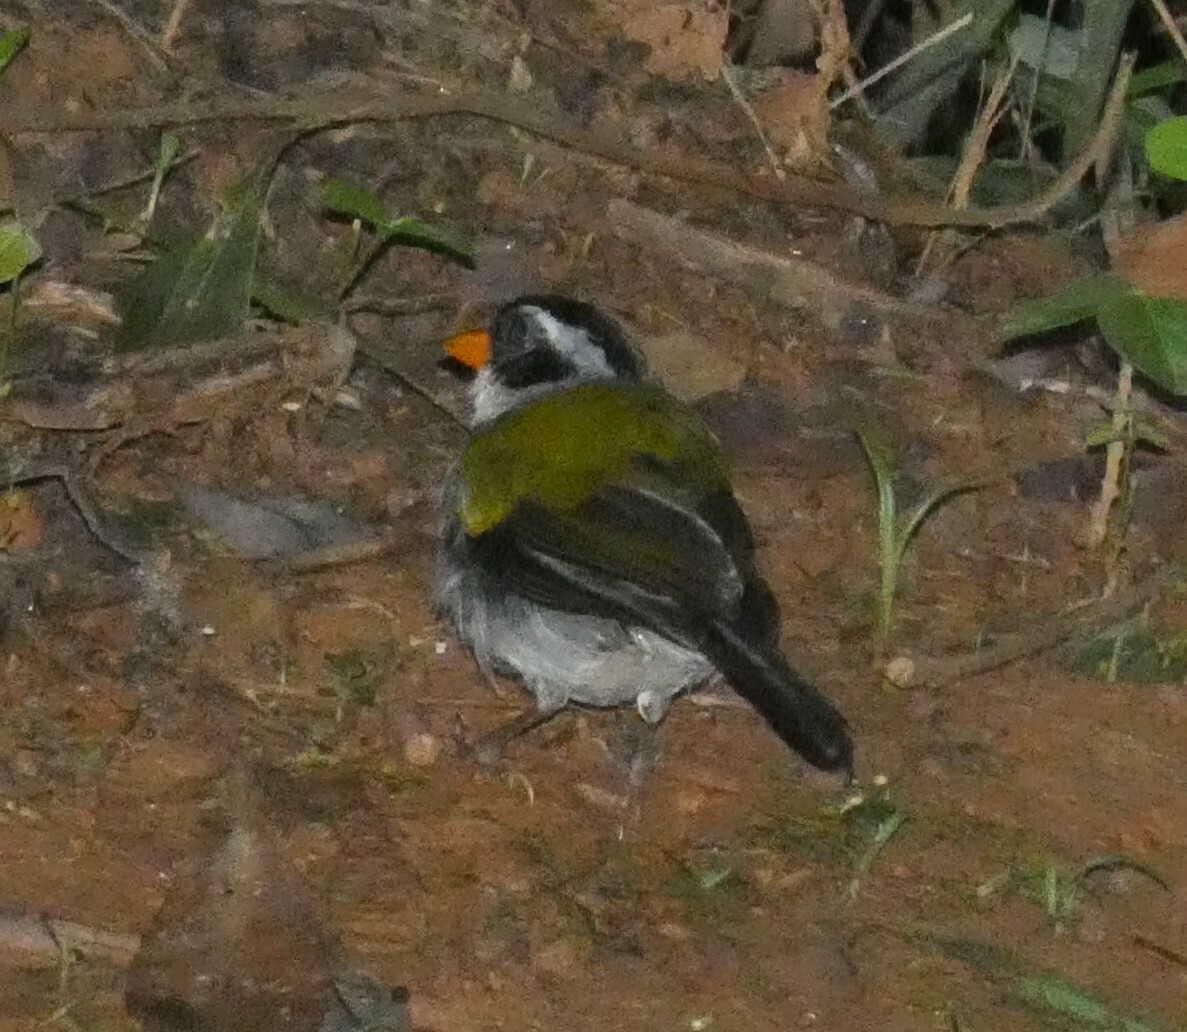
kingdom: Animalia
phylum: Chordata
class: Aves
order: Passeriformes
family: Passerellidae
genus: Arremon
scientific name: Arremon flavirostris
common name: Saffron-billed sparrow
